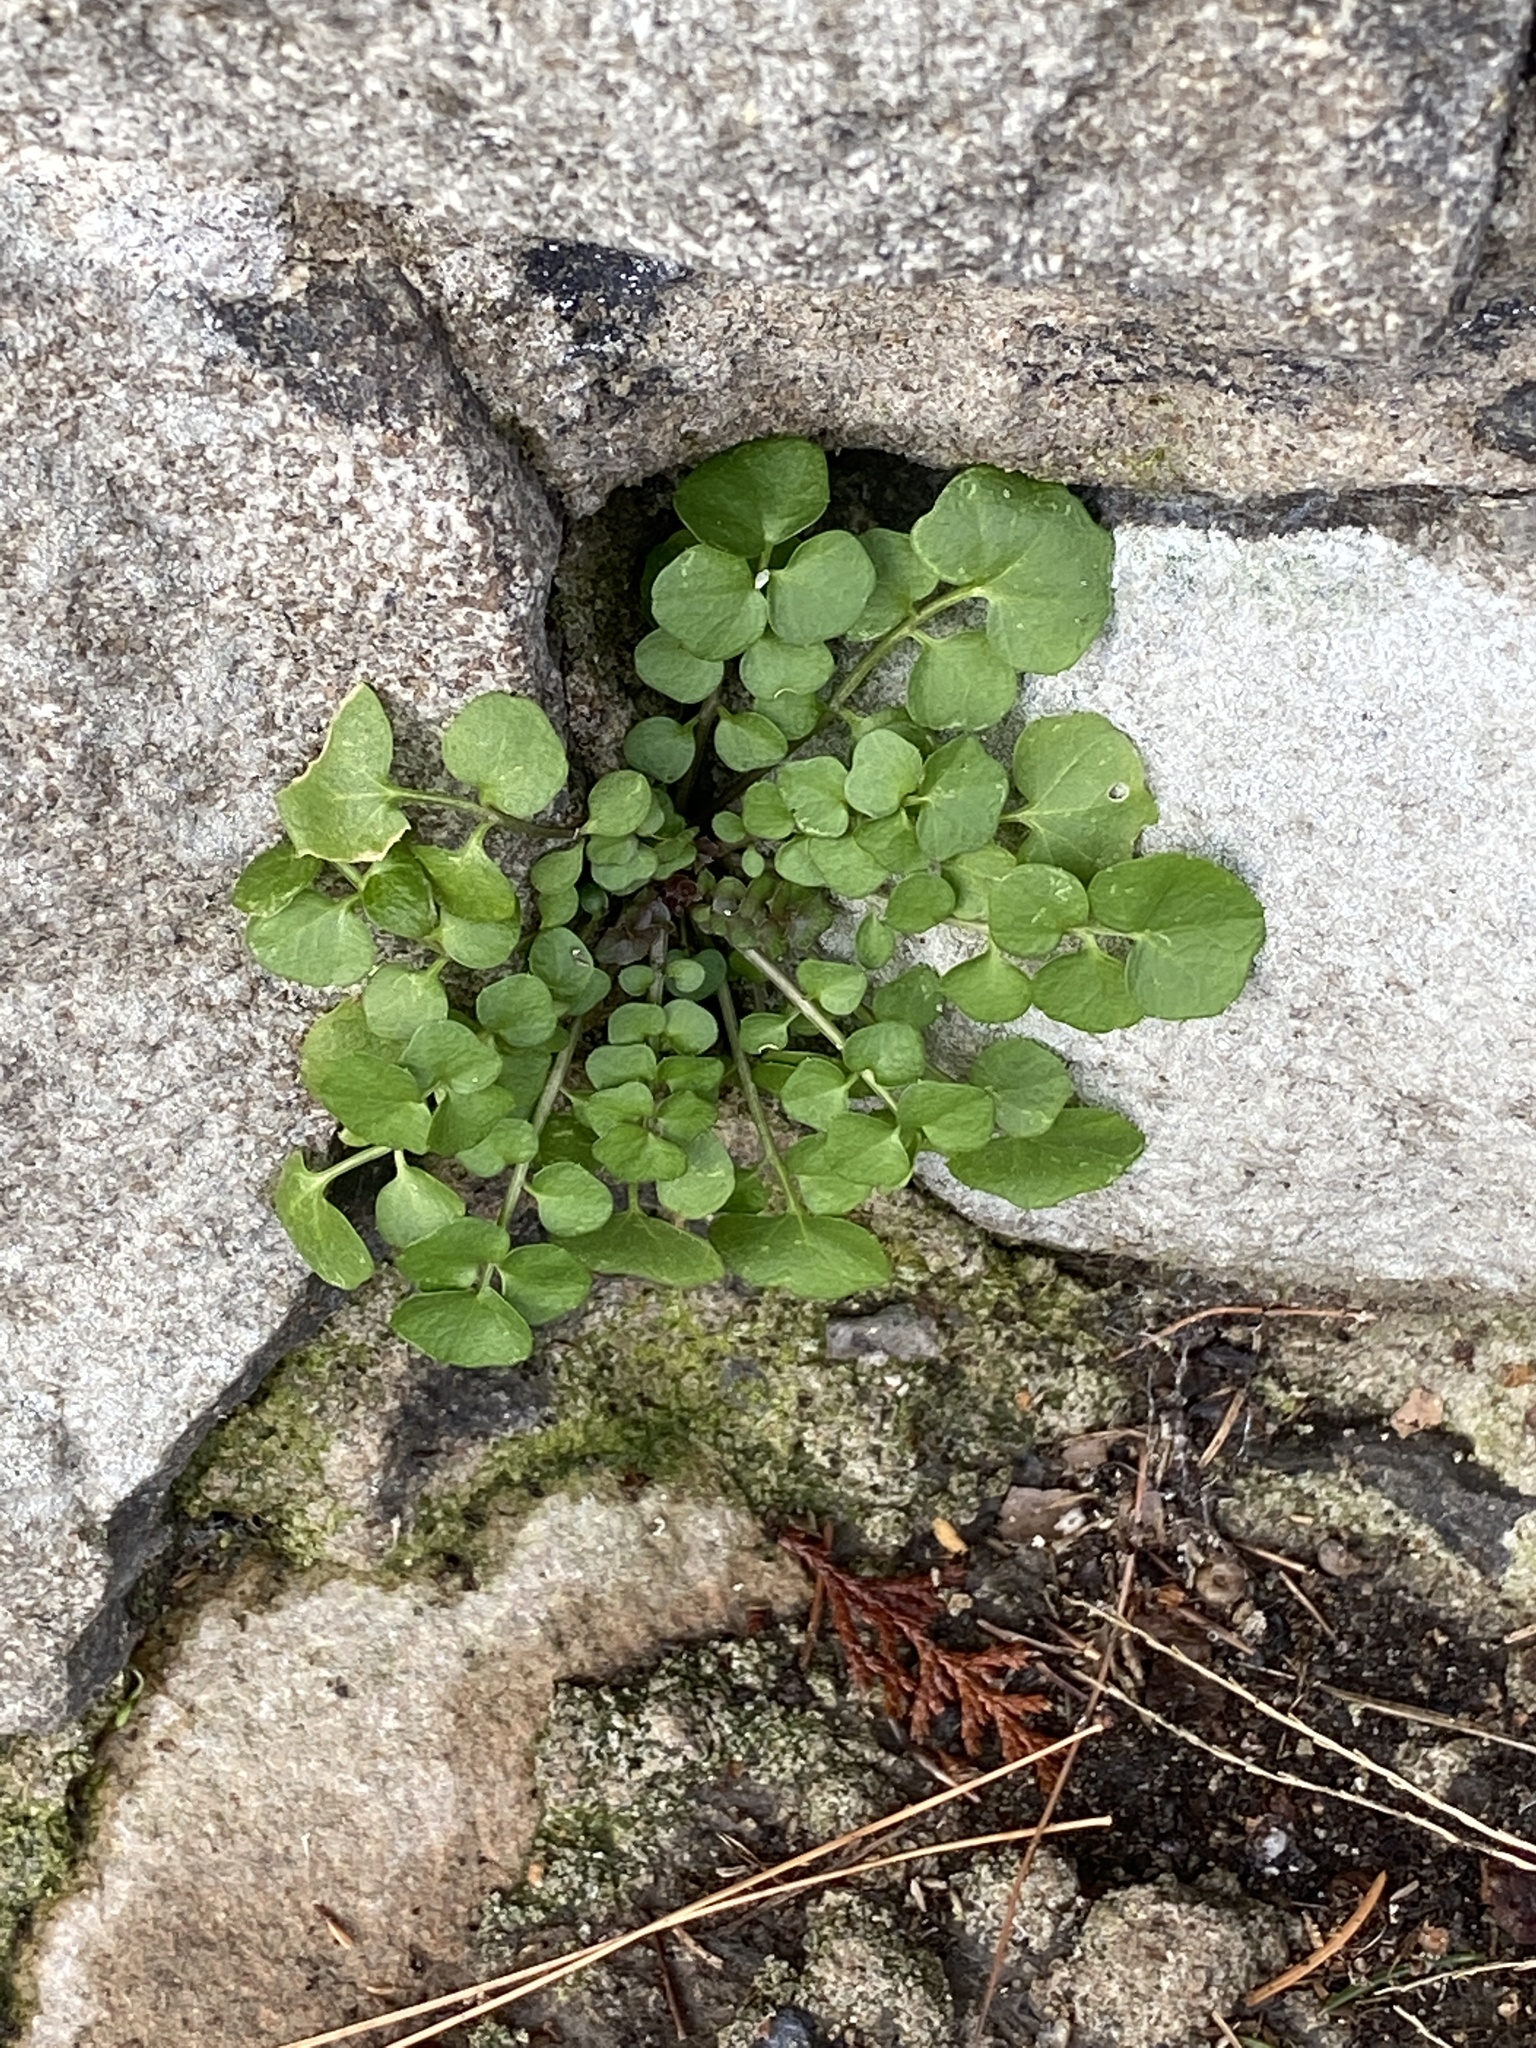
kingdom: Plantae
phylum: Tracheophyta
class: Magnoliopsida
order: Brassicales
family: Brassicaceae
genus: Cardamine
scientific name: Cardamine hirsuta
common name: Hairy bittercress
